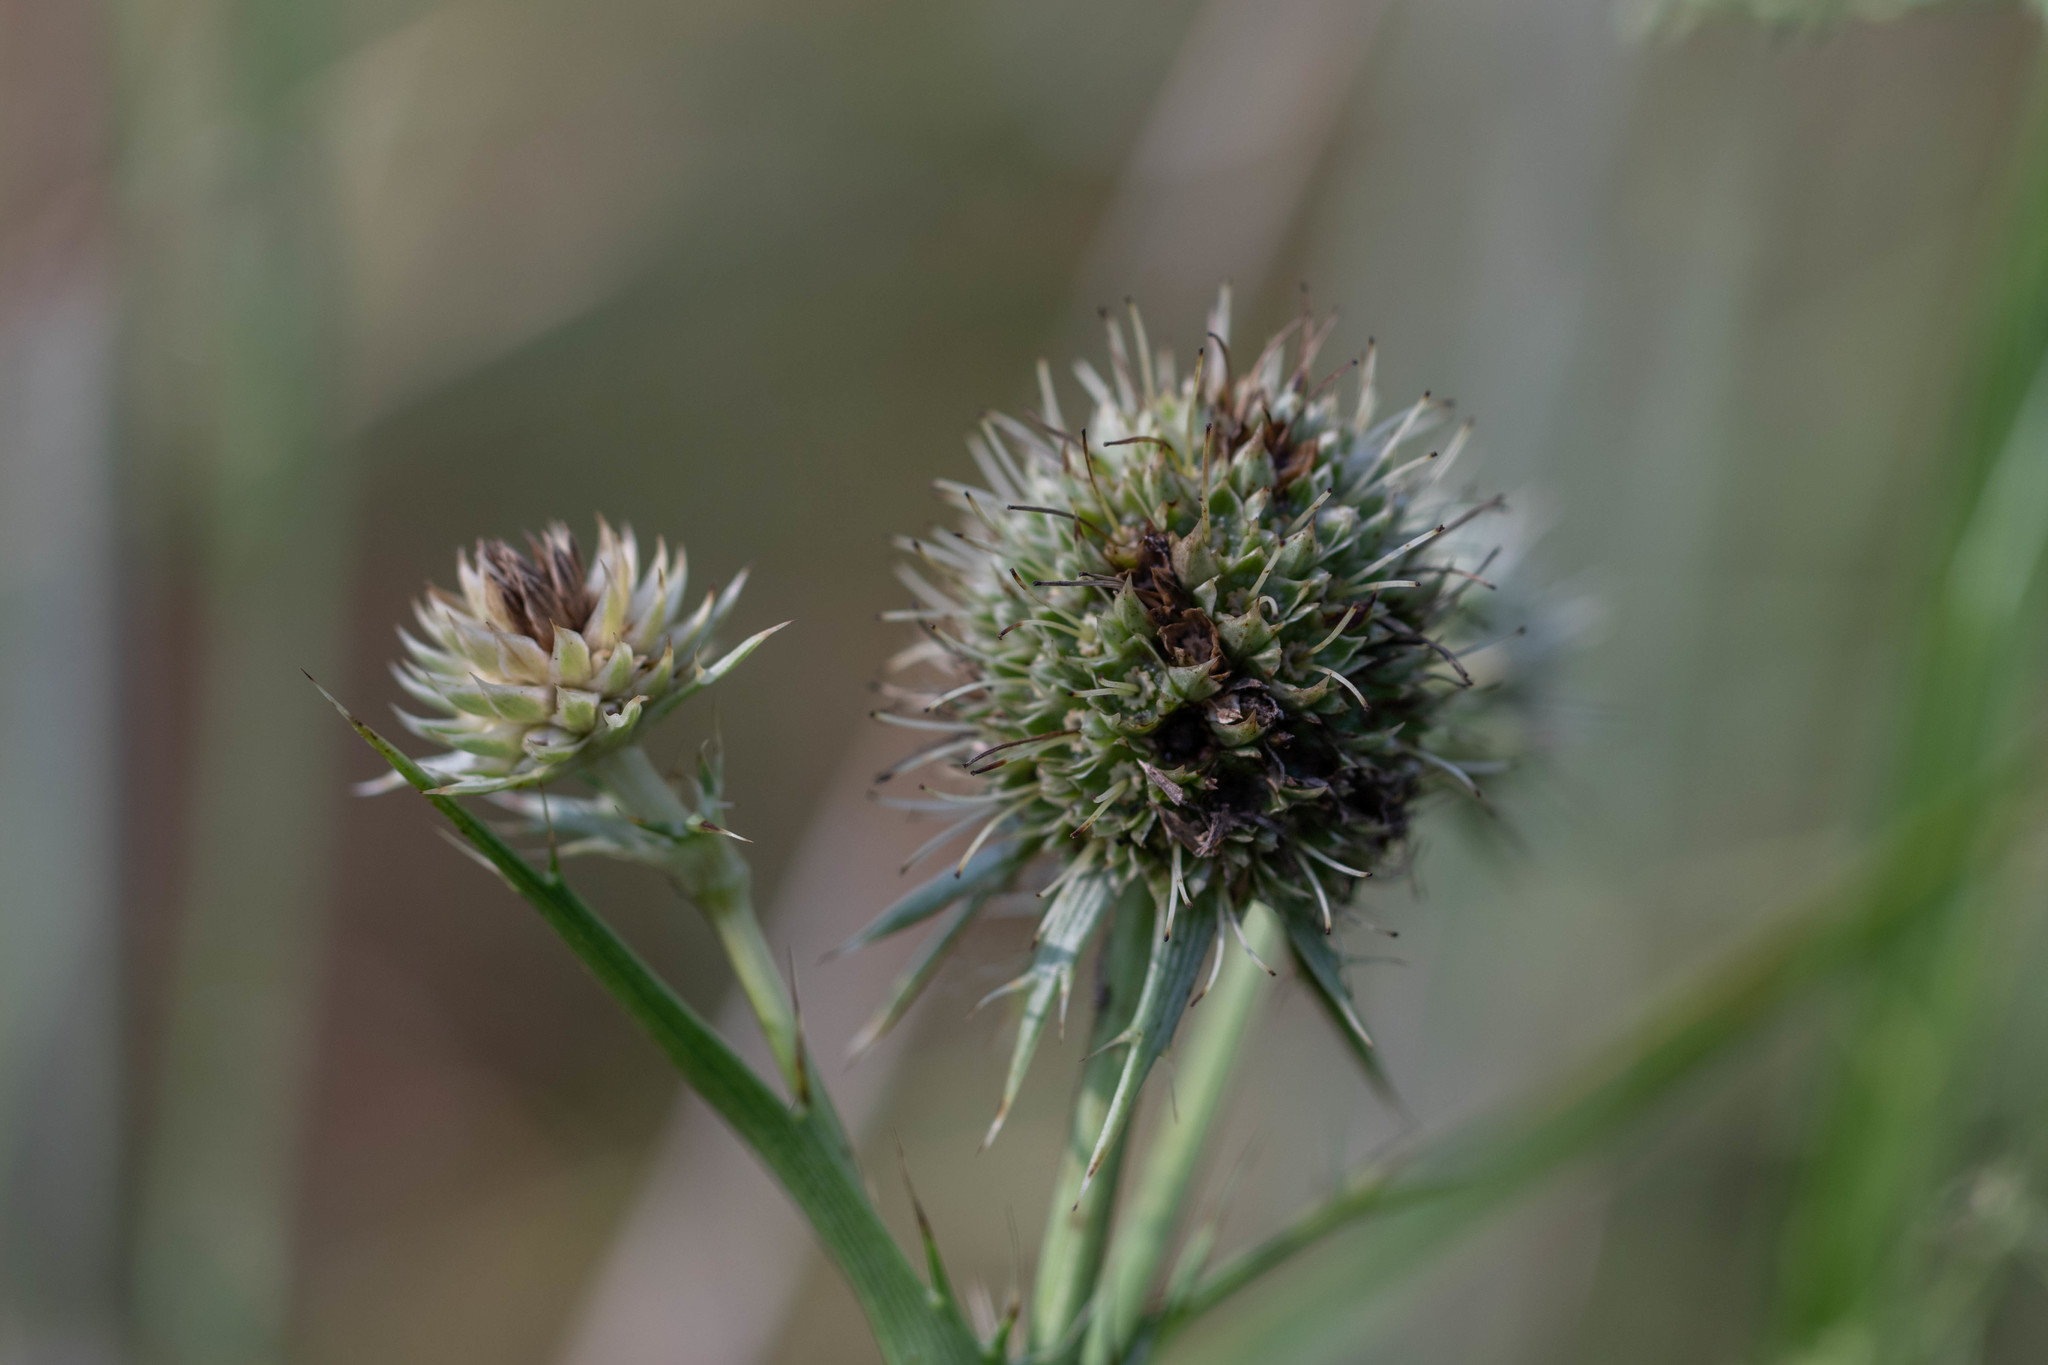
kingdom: Plantae
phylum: Tracheophyta
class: Magnoliopsida
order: Apiales
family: Apiaceae
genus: Eryngium
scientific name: Eryngium yuccifolium
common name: Button eryngo
